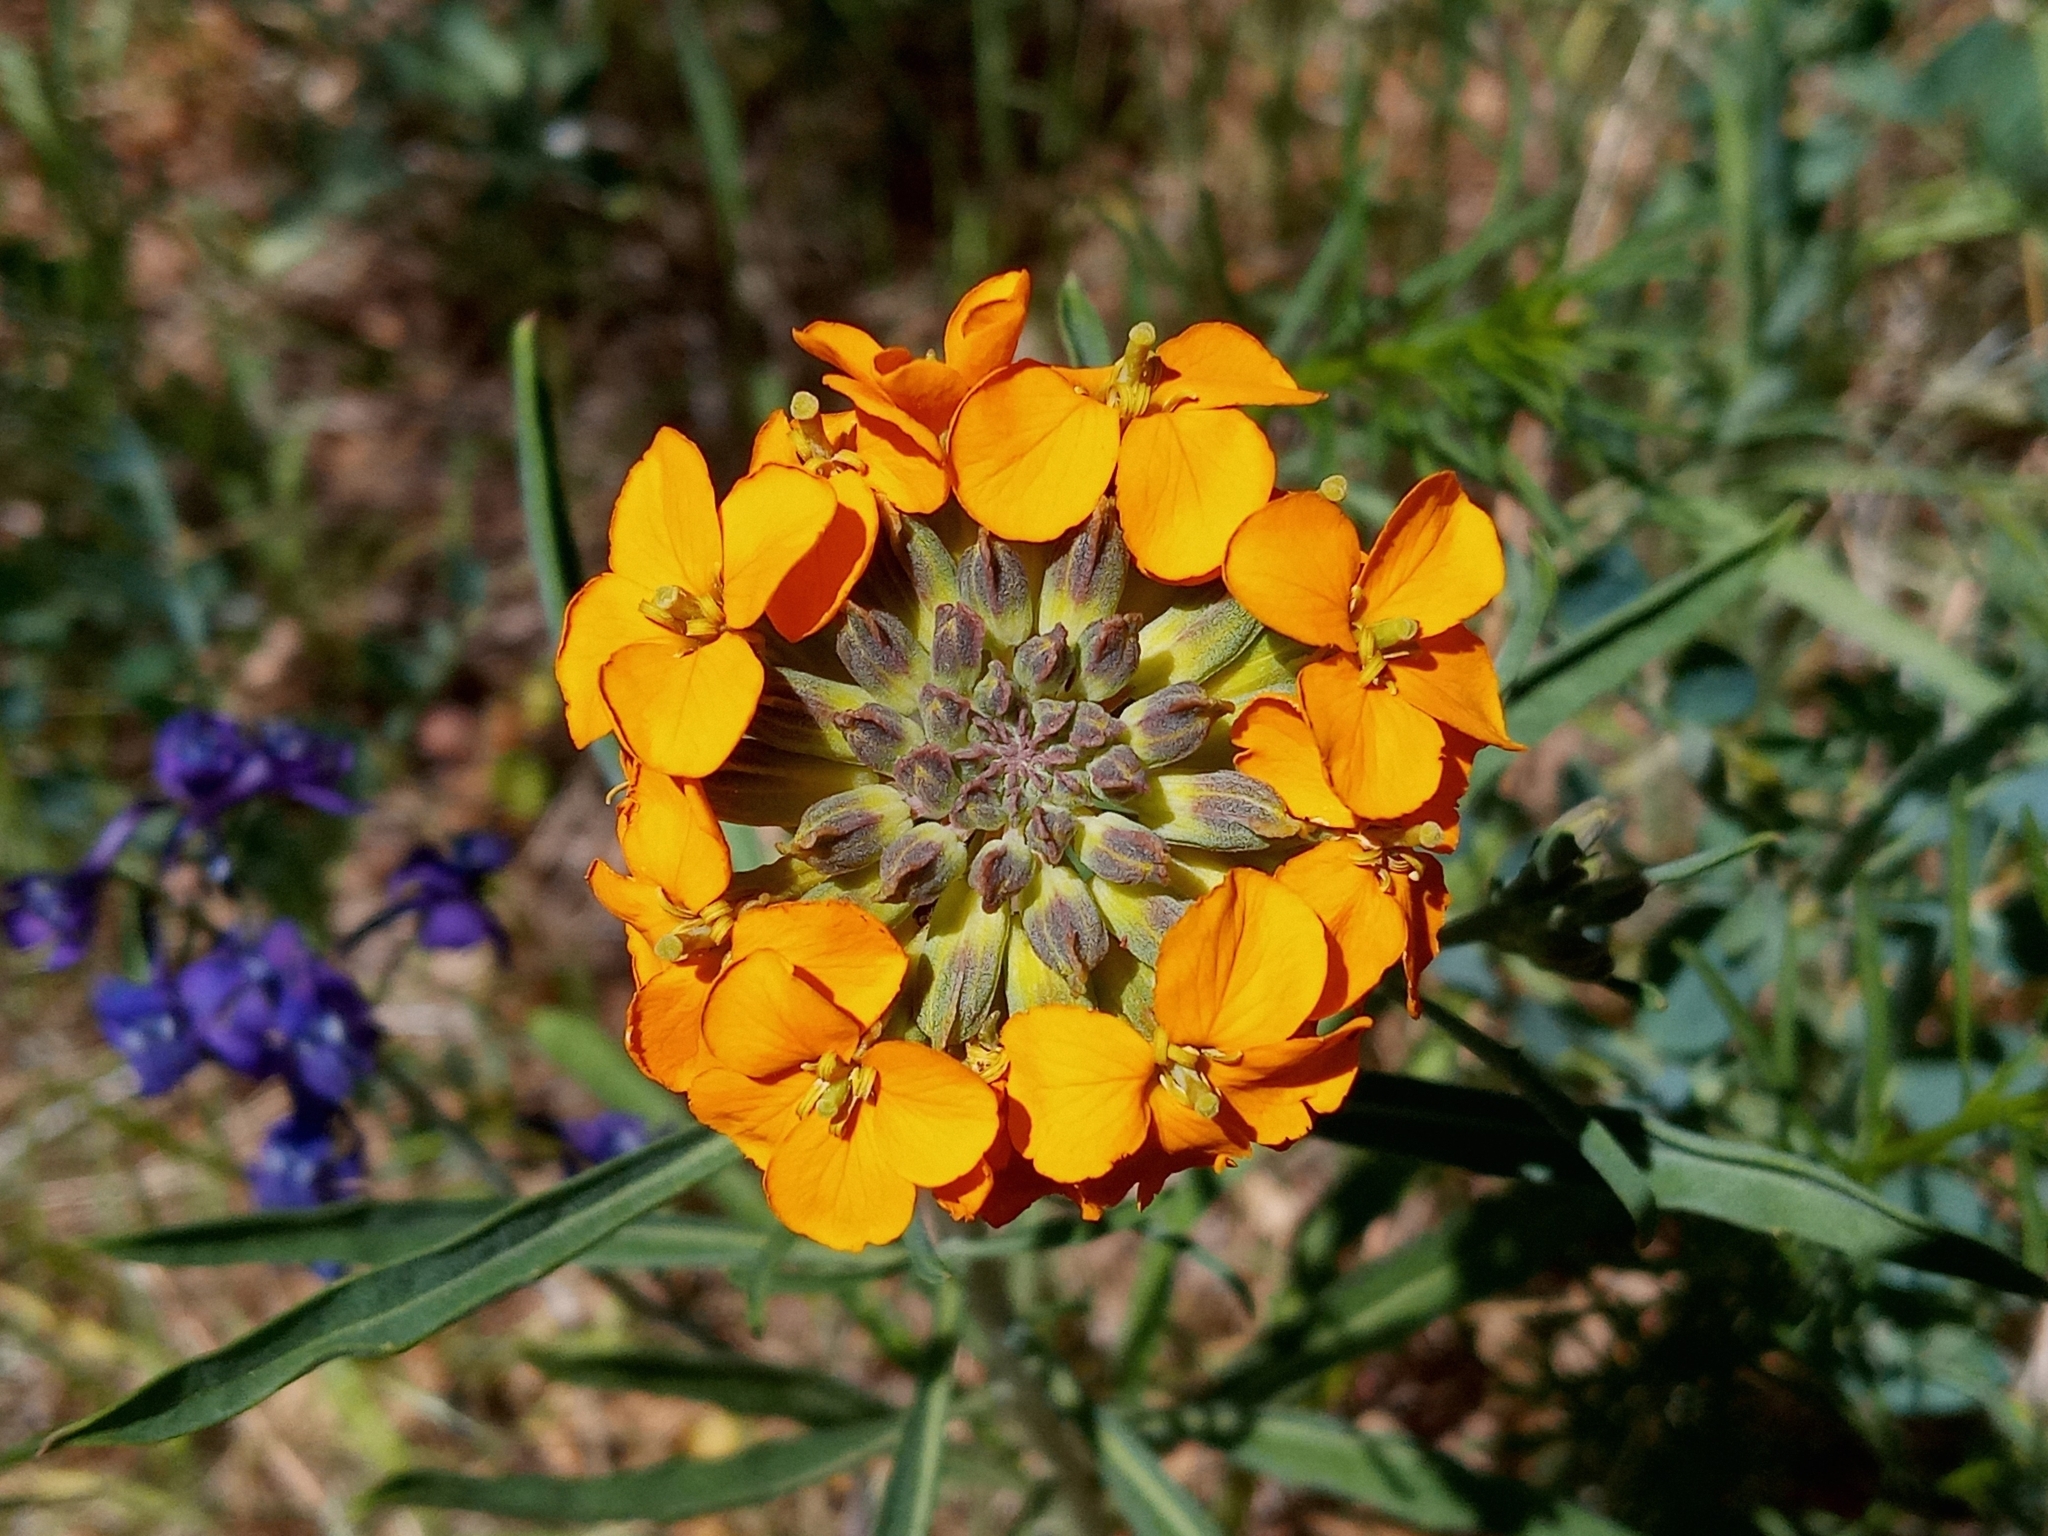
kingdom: Plantae
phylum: Tracheophyta
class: Magnoliopsida
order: Brassicales
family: Brassicaceae
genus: Erysimum
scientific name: Erysimum capitatum
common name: Western wallflower
